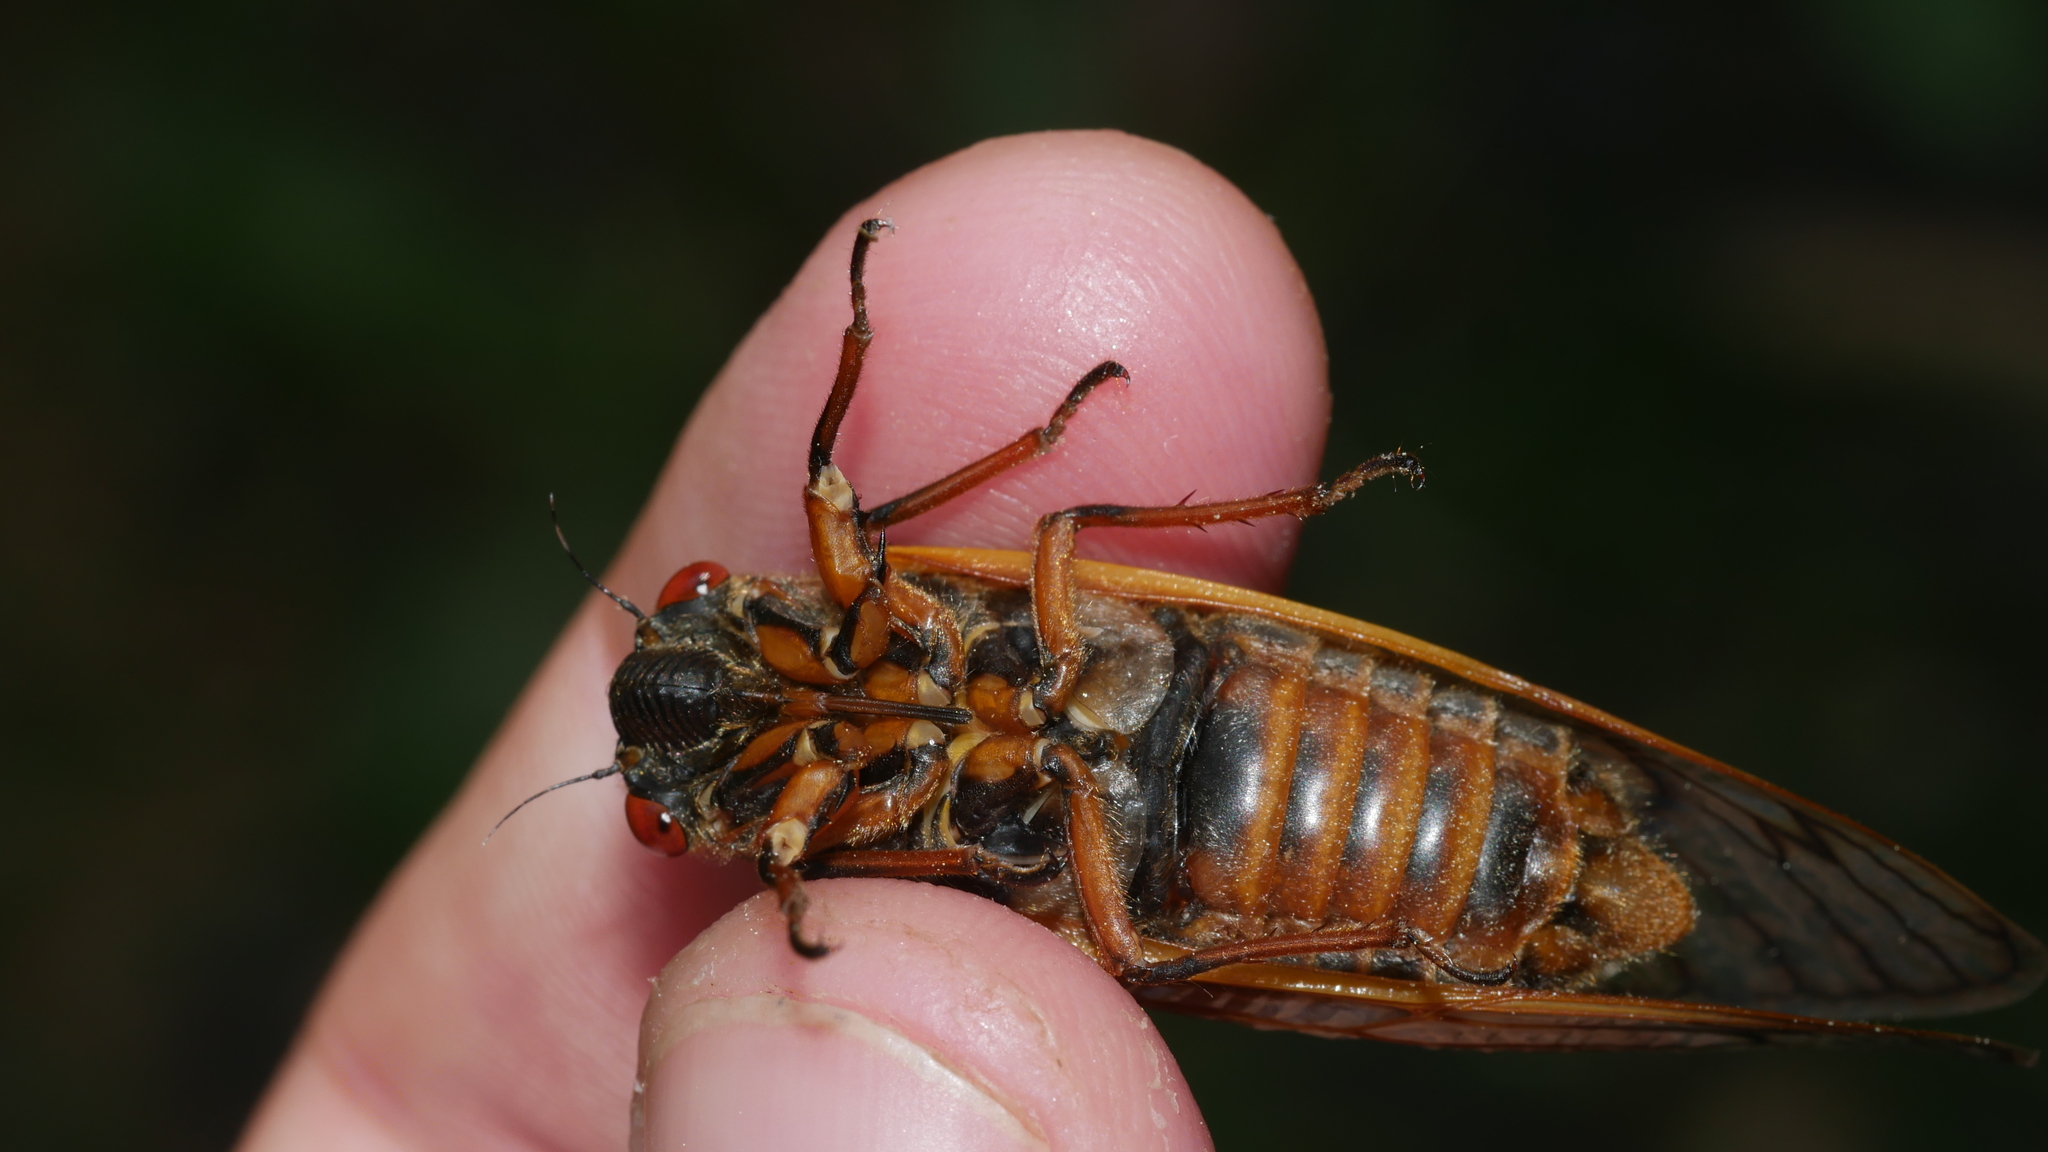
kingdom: Animalia
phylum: Arthropoda
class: Insecta
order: Hemiptera
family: Cicadidae
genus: Magicicada
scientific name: Magicicada septendecim
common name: Periodical cicada
